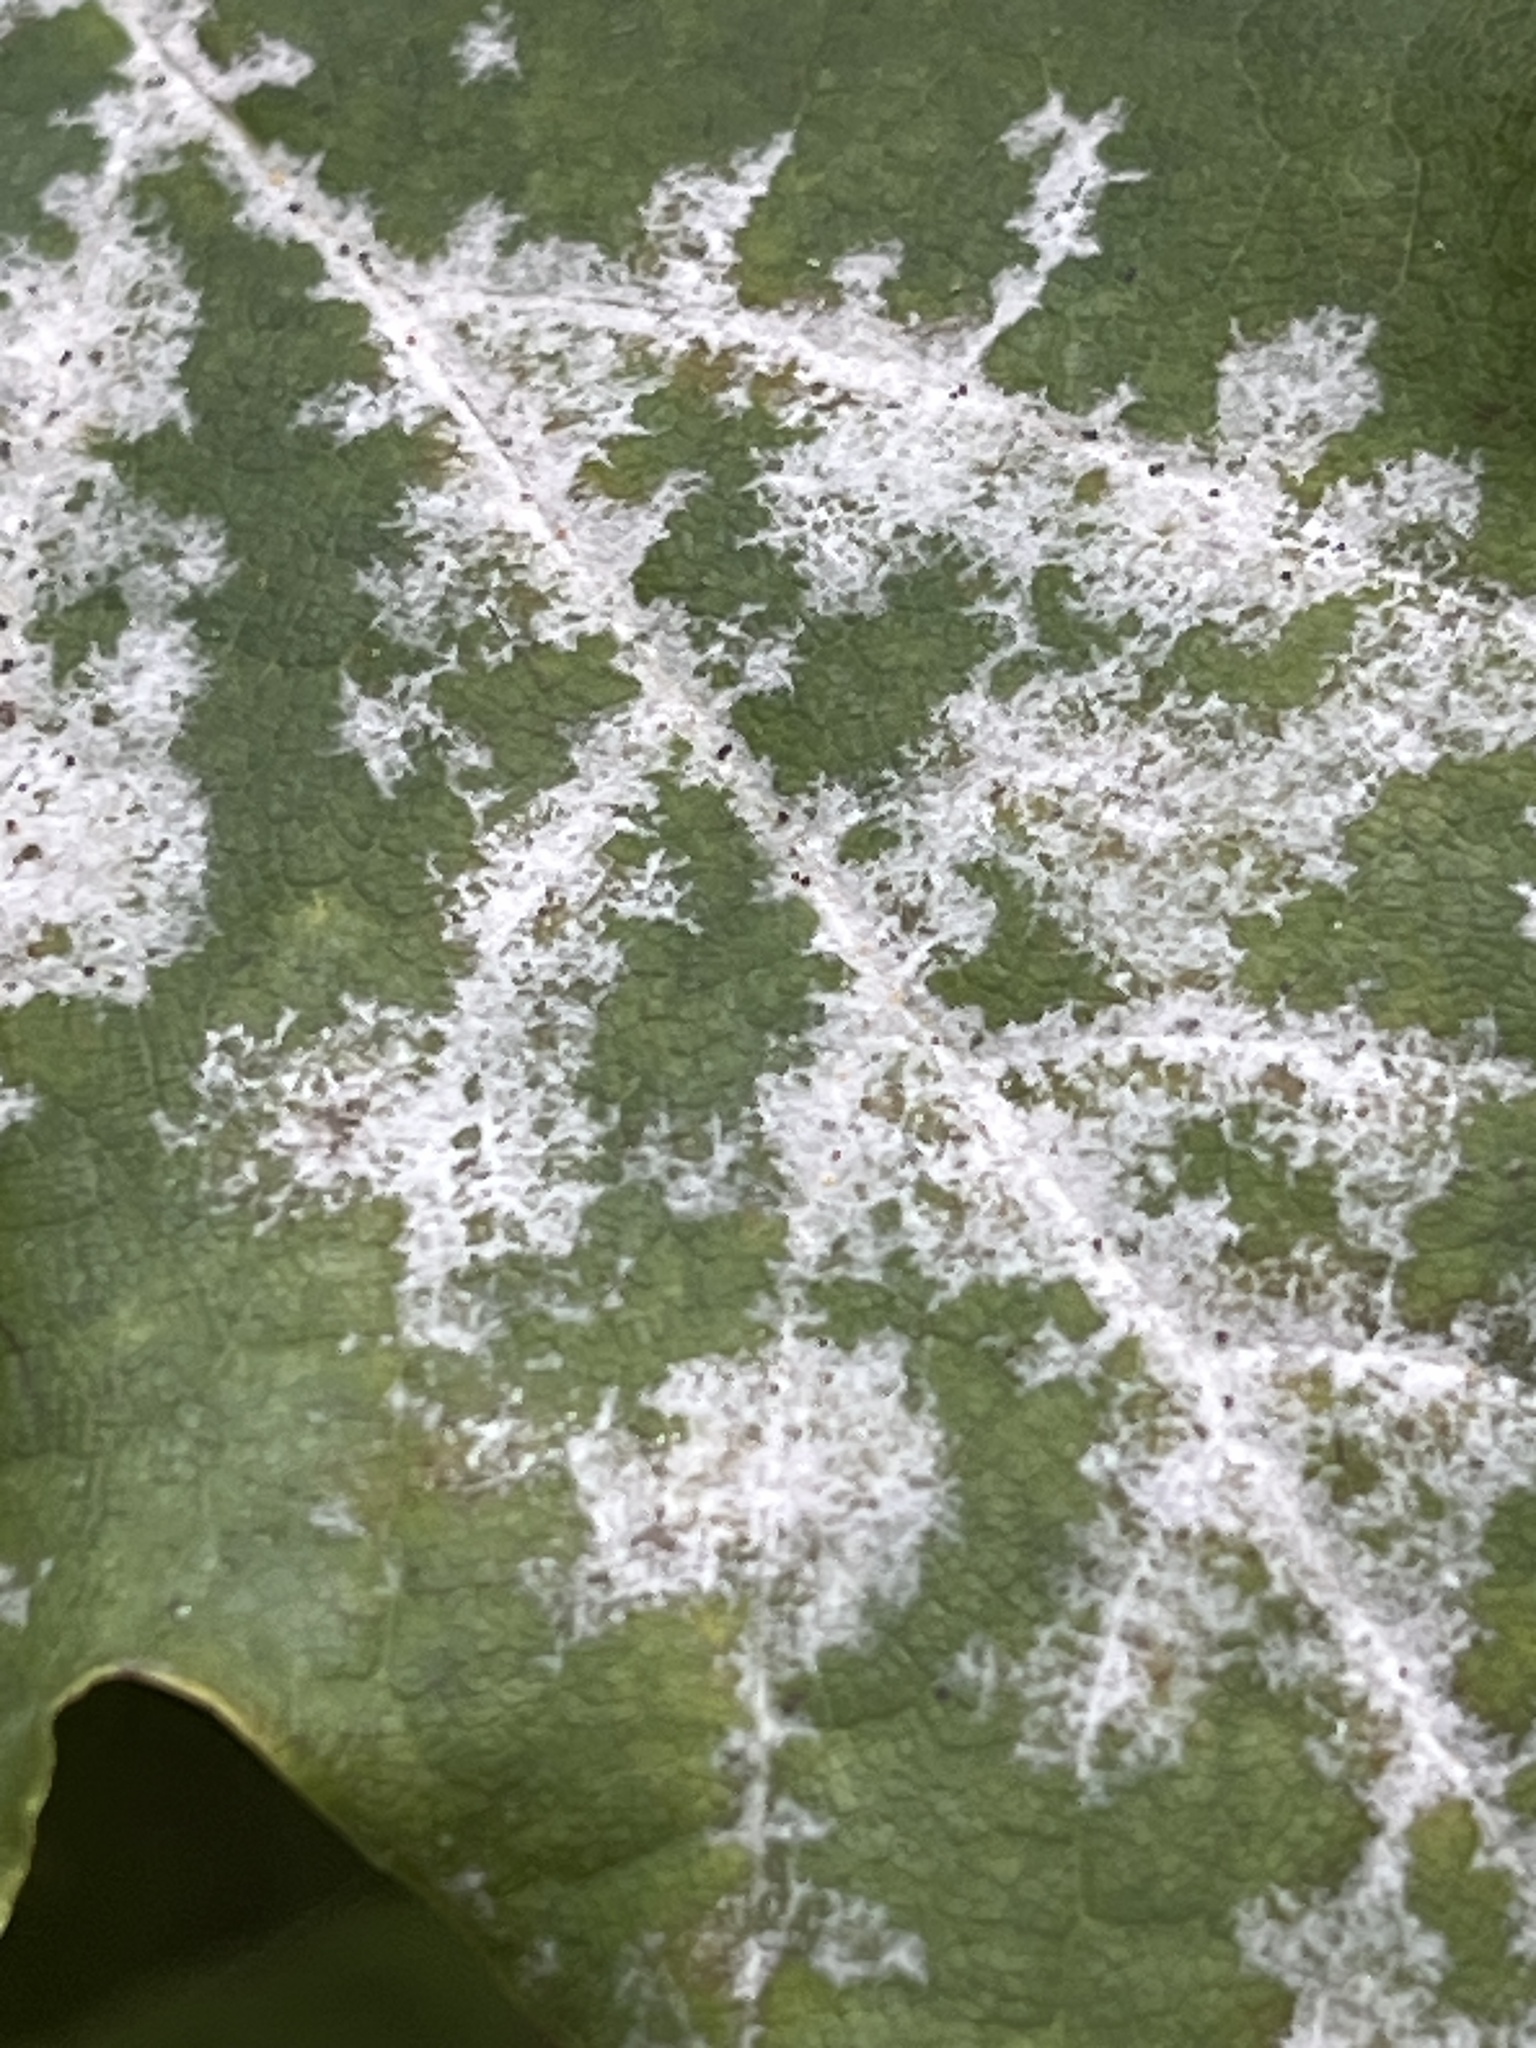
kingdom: Fungi
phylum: Ascomycota
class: Leotiomycetes
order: Helotiales
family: Erysiphaceae
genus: Sawadaea
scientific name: Sawadaea tulasnei
